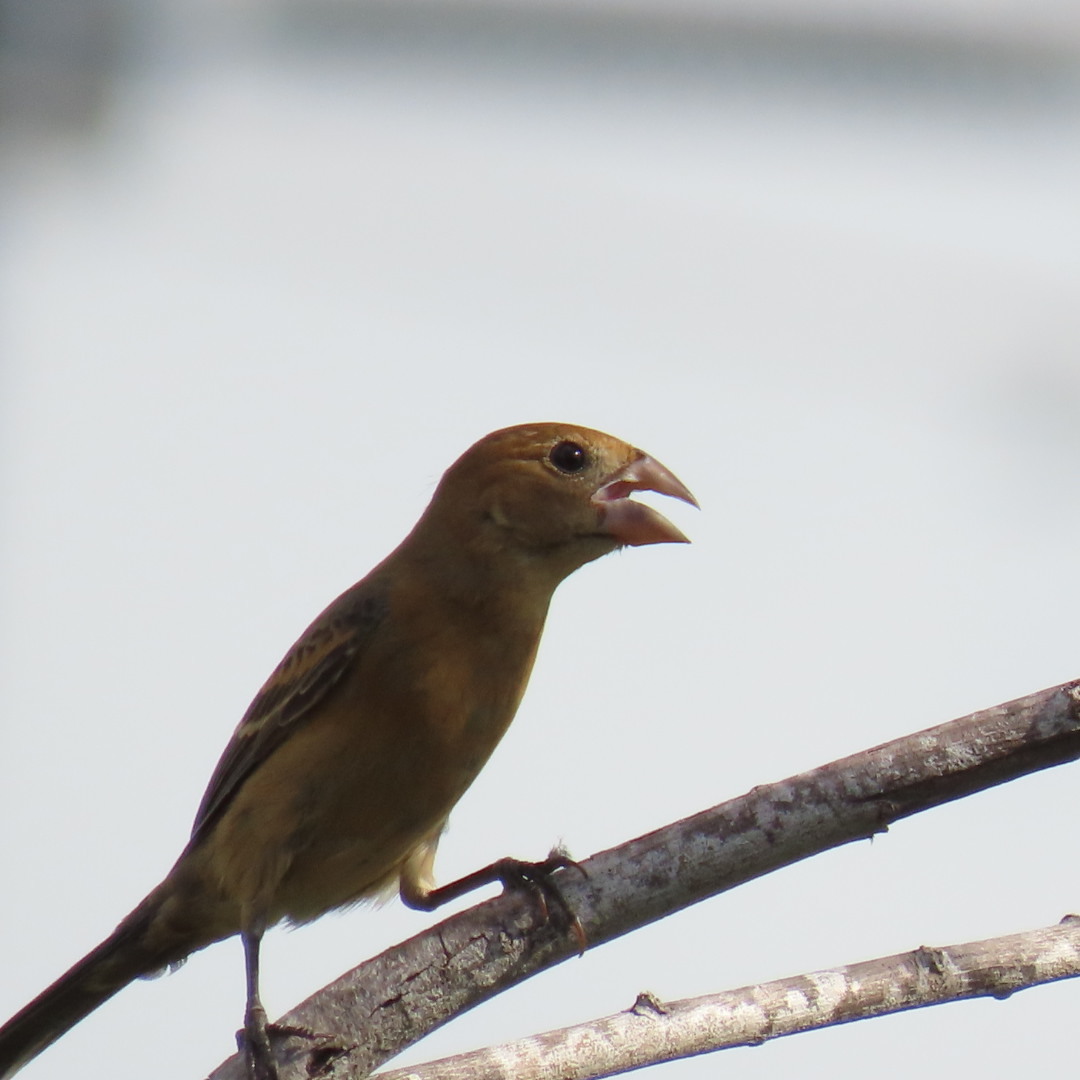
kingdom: Animalia
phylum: Chordata
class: Aves
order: Passeriformes
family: Cardinalidae
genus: Passerina
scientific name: Passerina caerulea
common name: Blue grosbeak
